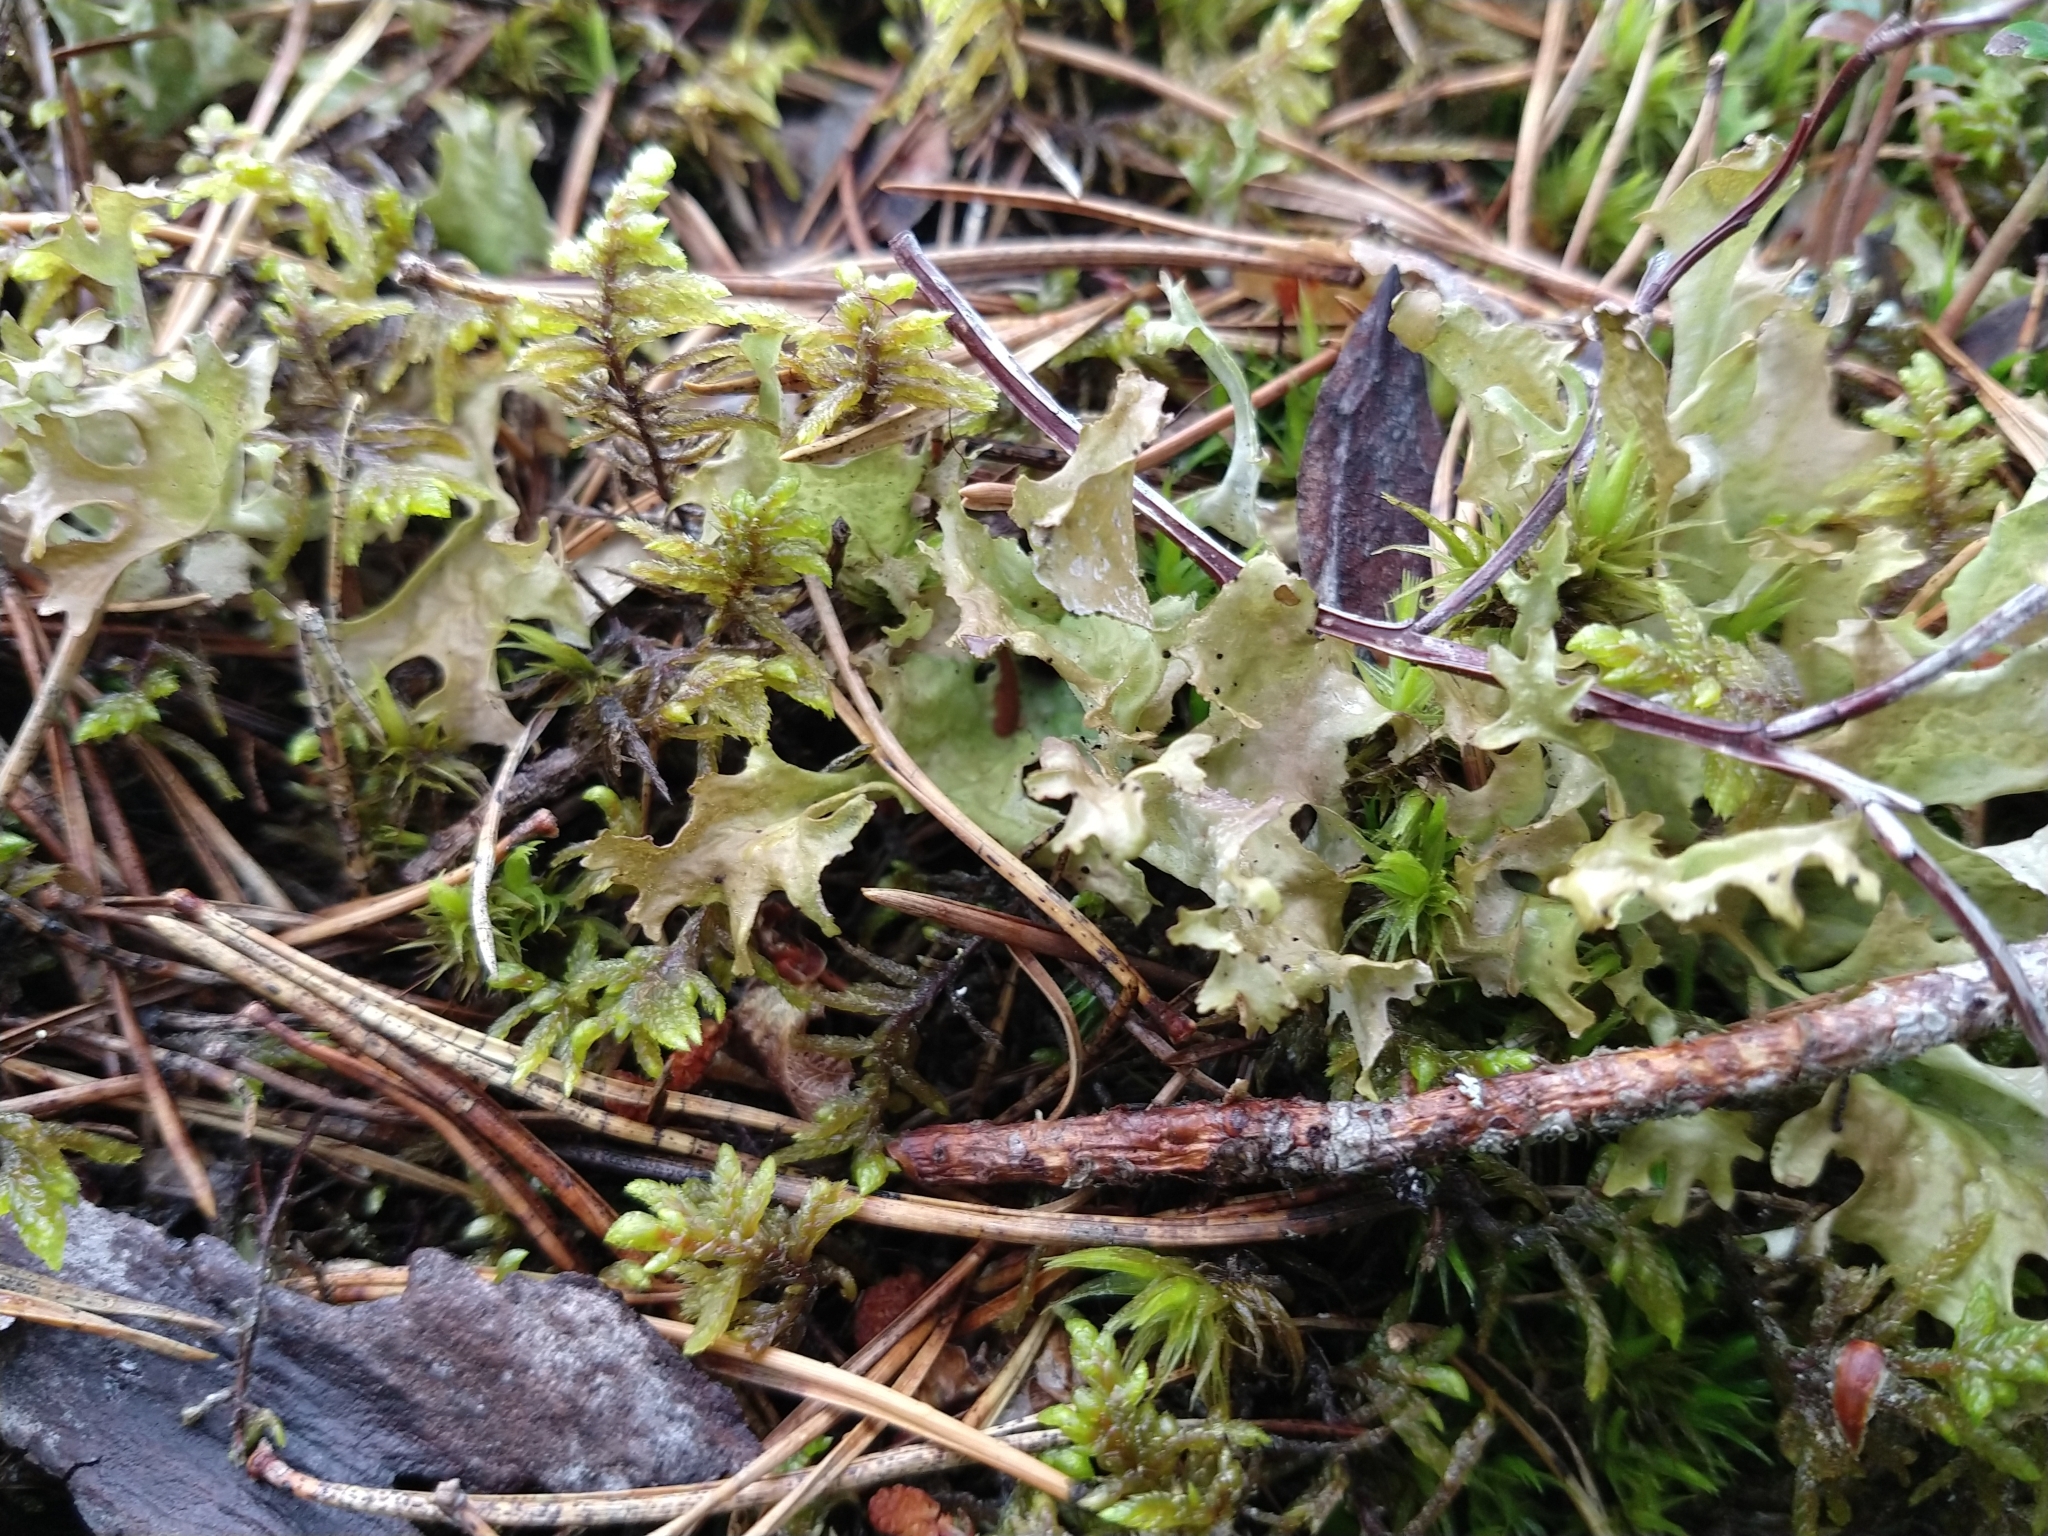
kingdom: Fungi
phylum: Ascomycota
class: Lecanoromycetes
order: Lecanorales
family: Parmeliaceae
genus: Cetraria
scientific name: Cetraria islandica
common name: Iceland lichen
